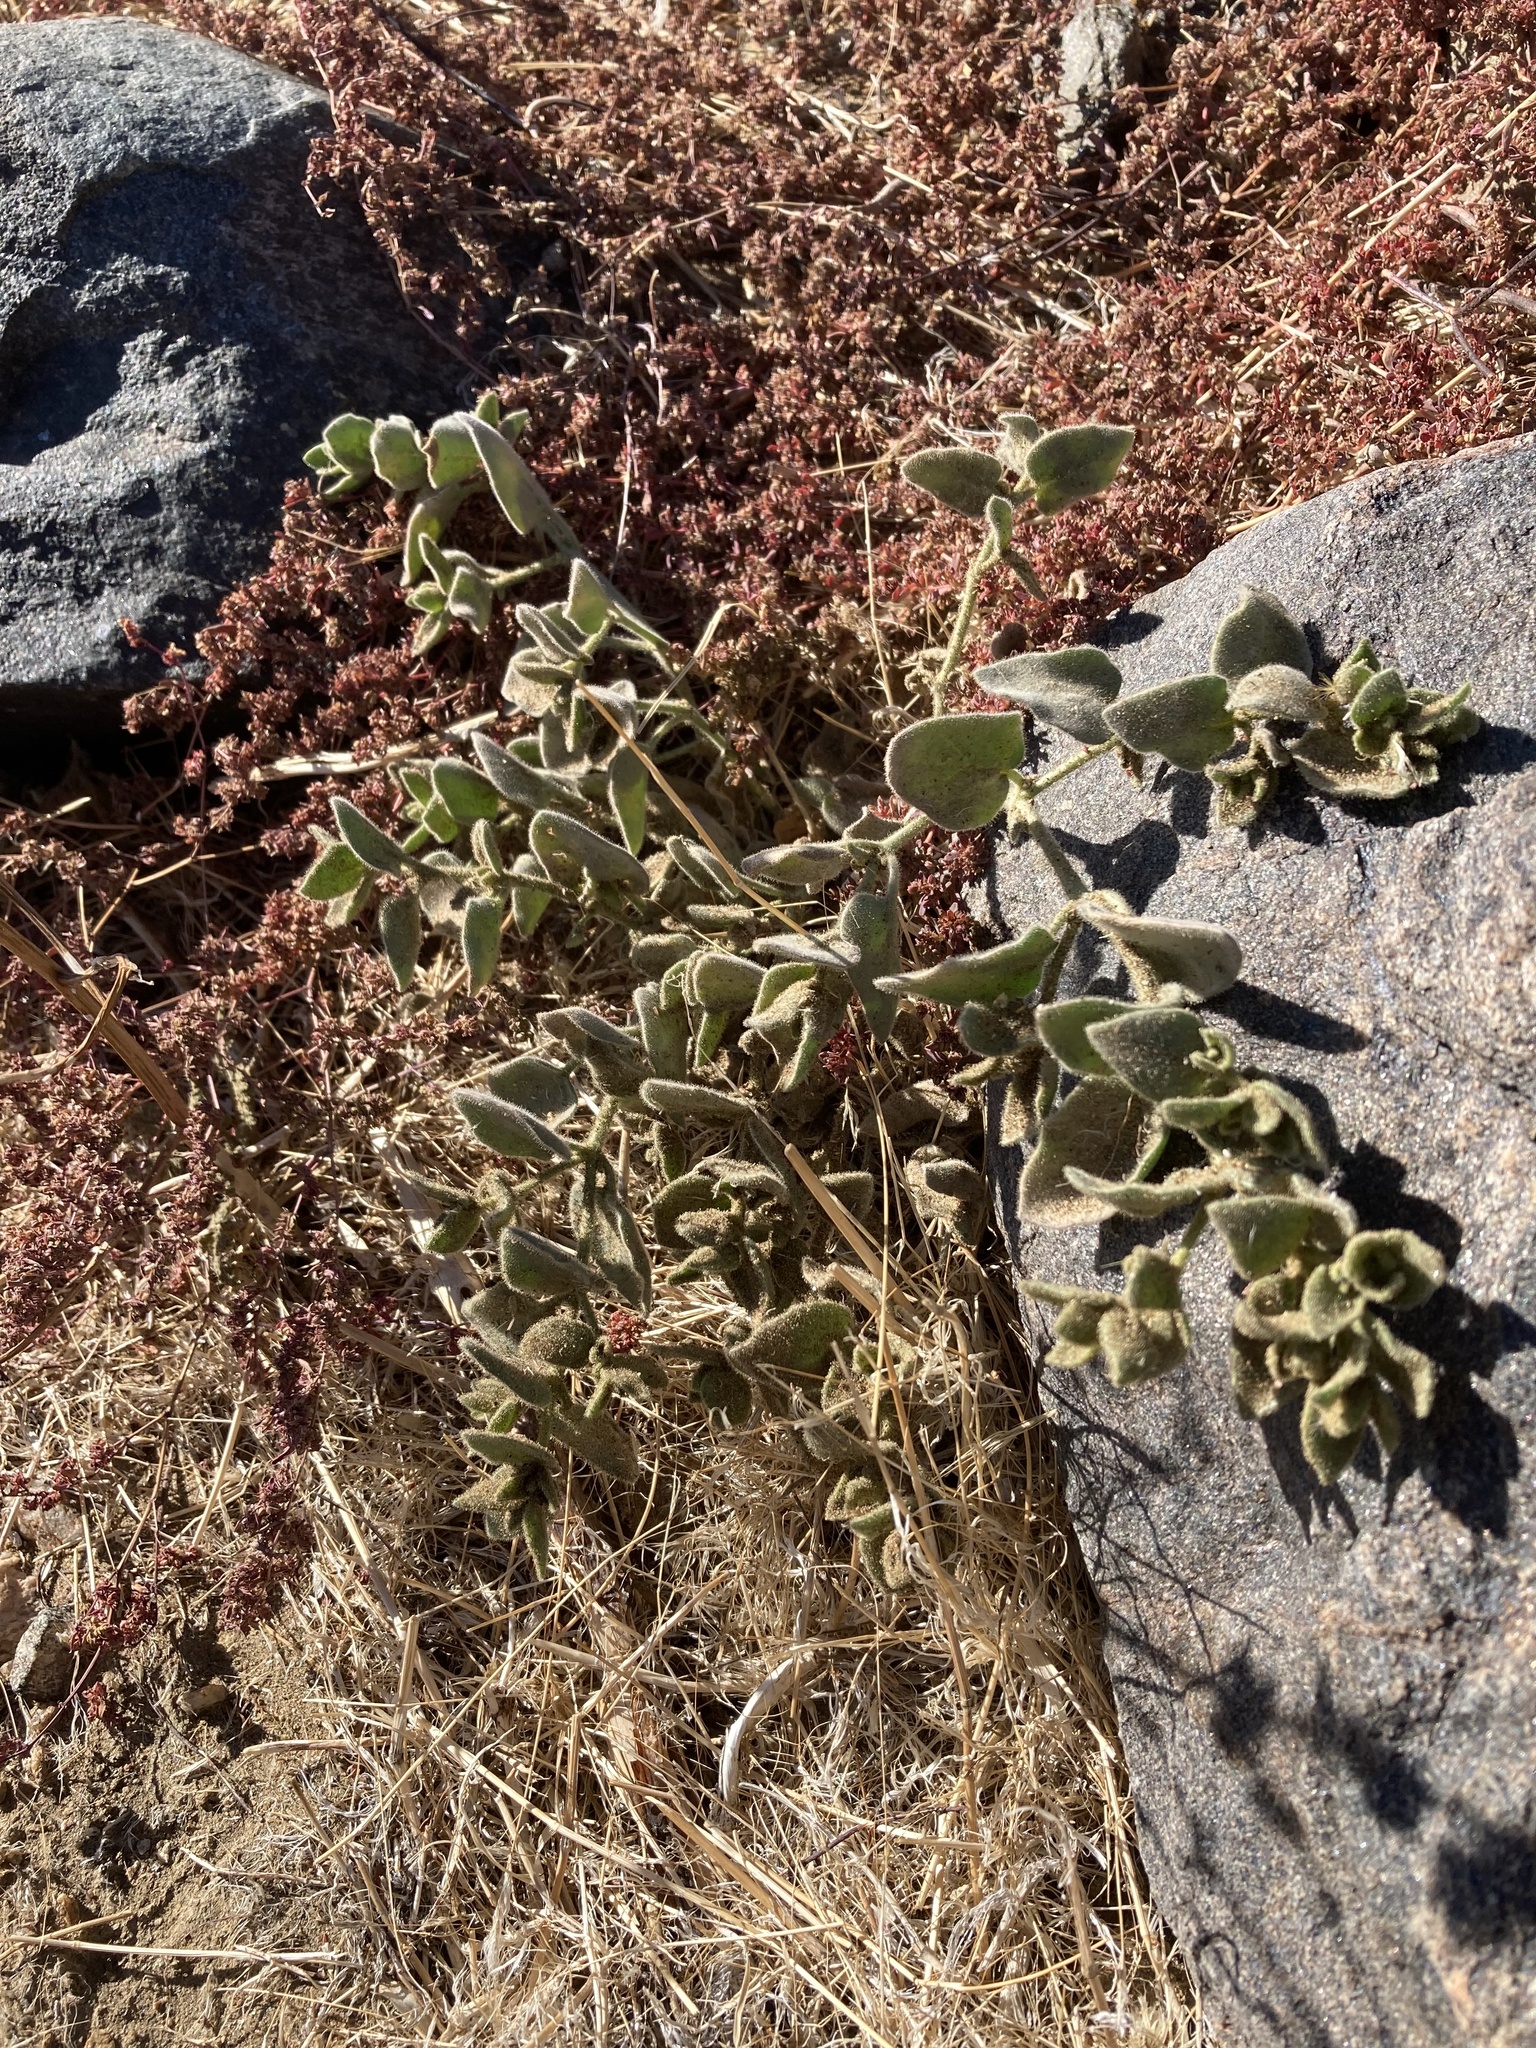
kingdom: Plantae
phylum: Tracheophyta
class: Magnoliopsida
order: Caryophyllales
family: Nyctaginaceae
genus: Mirabilis
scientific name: Mirabilis laevis
